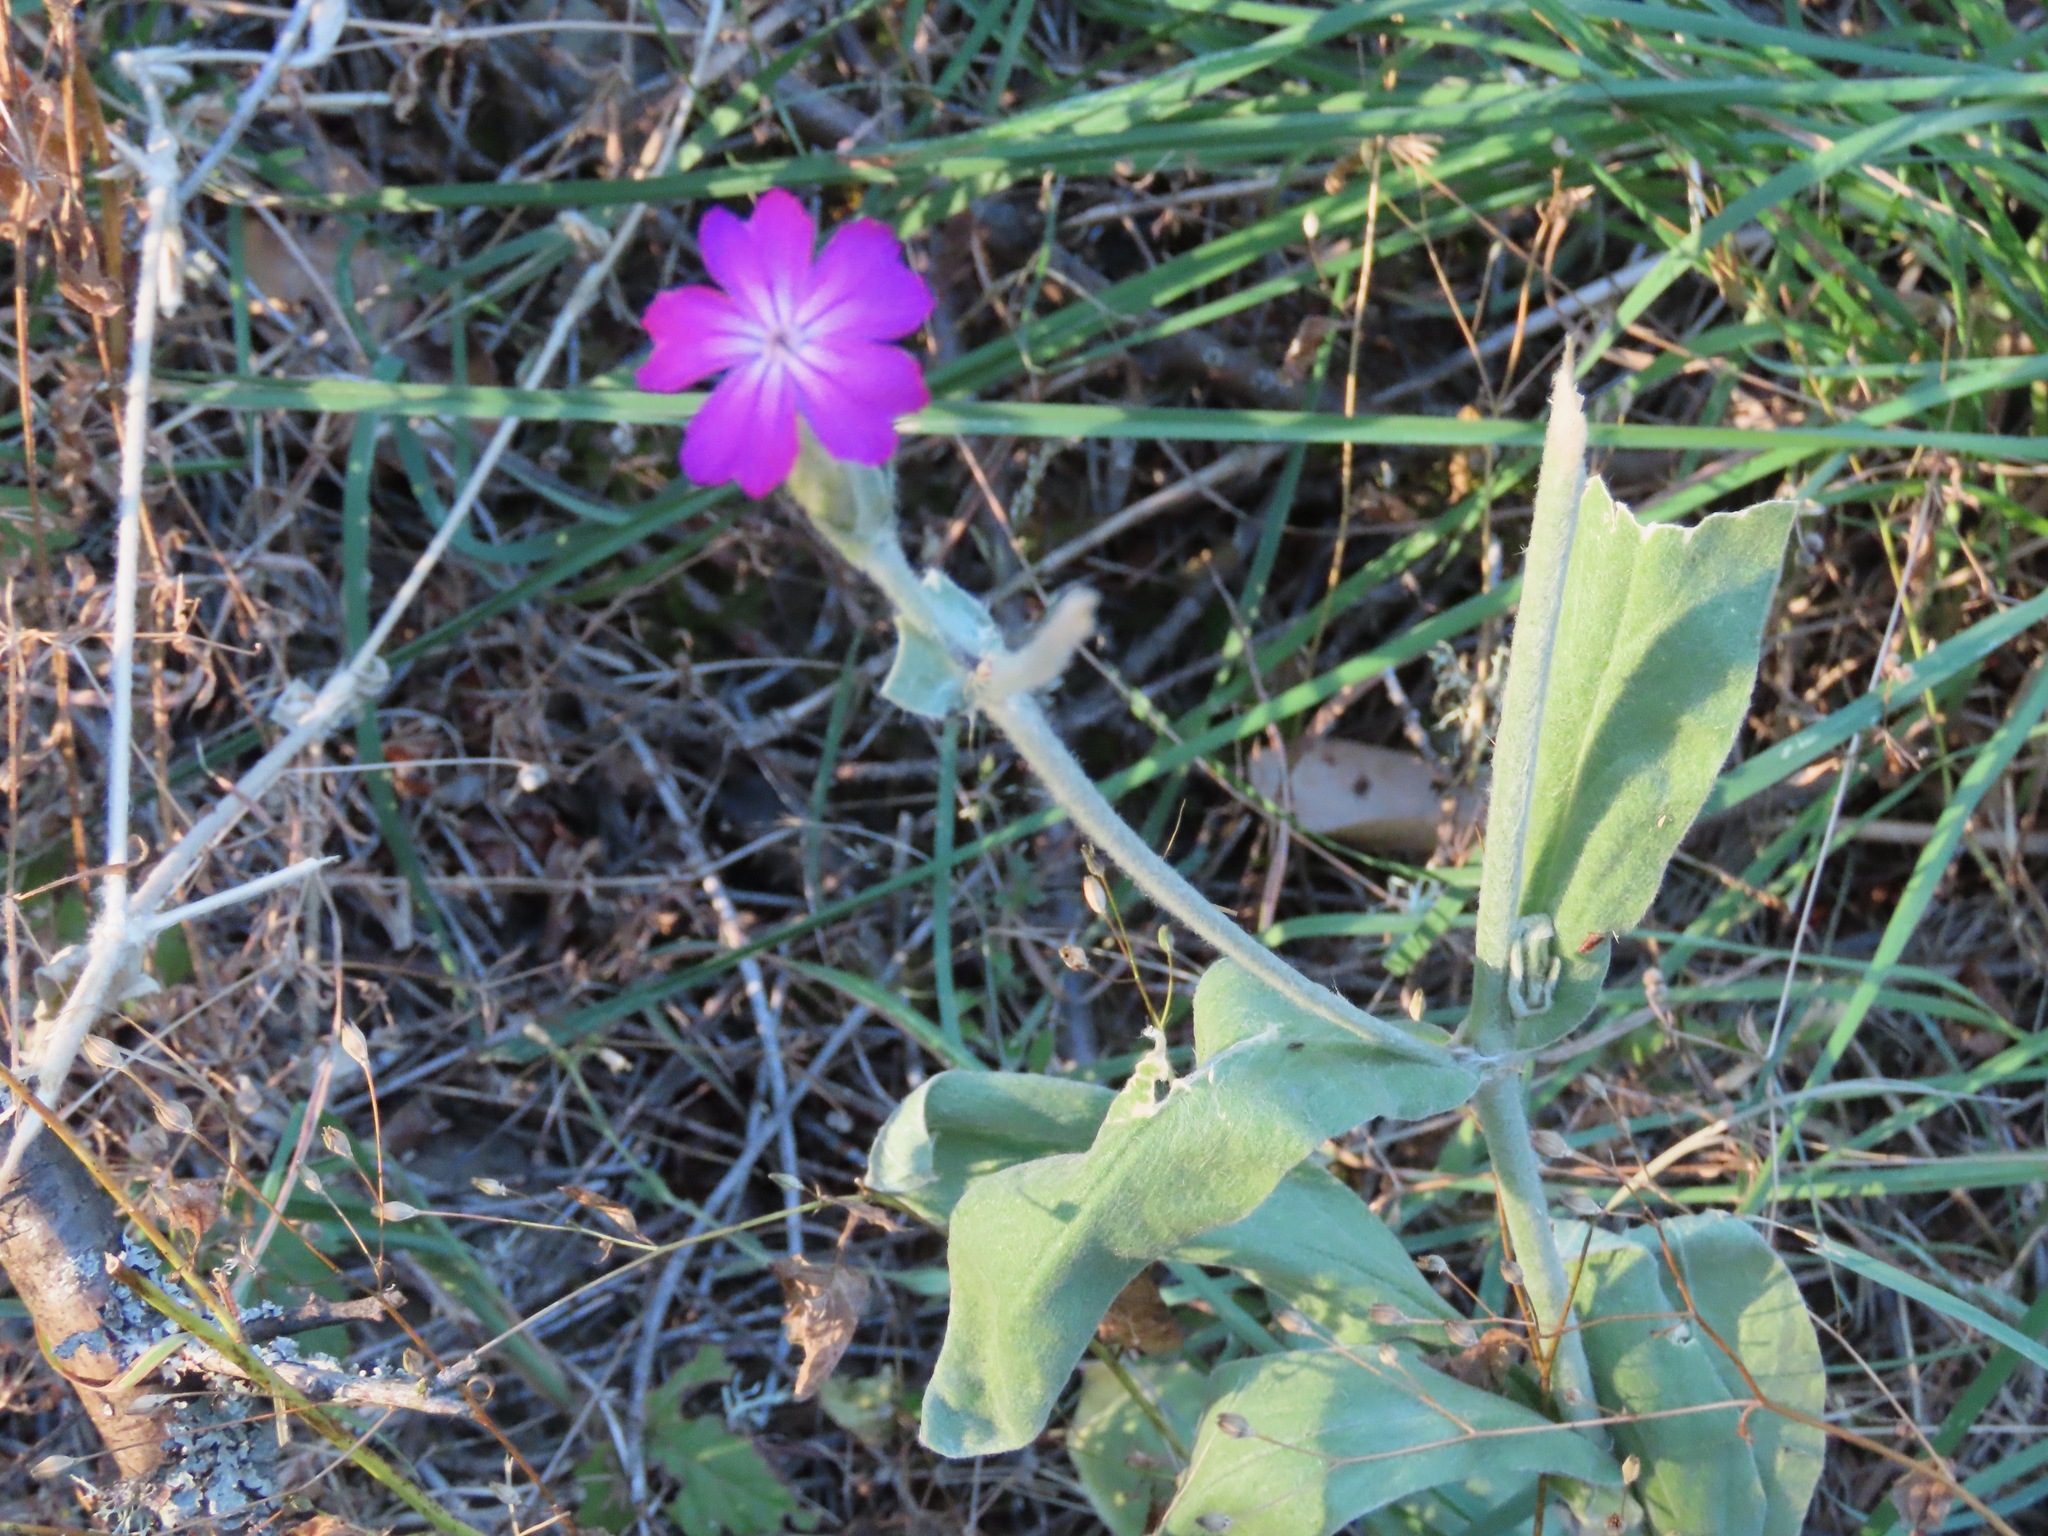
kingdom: Plantae
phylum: Tracheophyta
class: Magnoliopsida
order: Caryophyllales
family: Caryophyllaceae
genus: Silene
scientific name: Silene coronaria
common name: Rose campion
